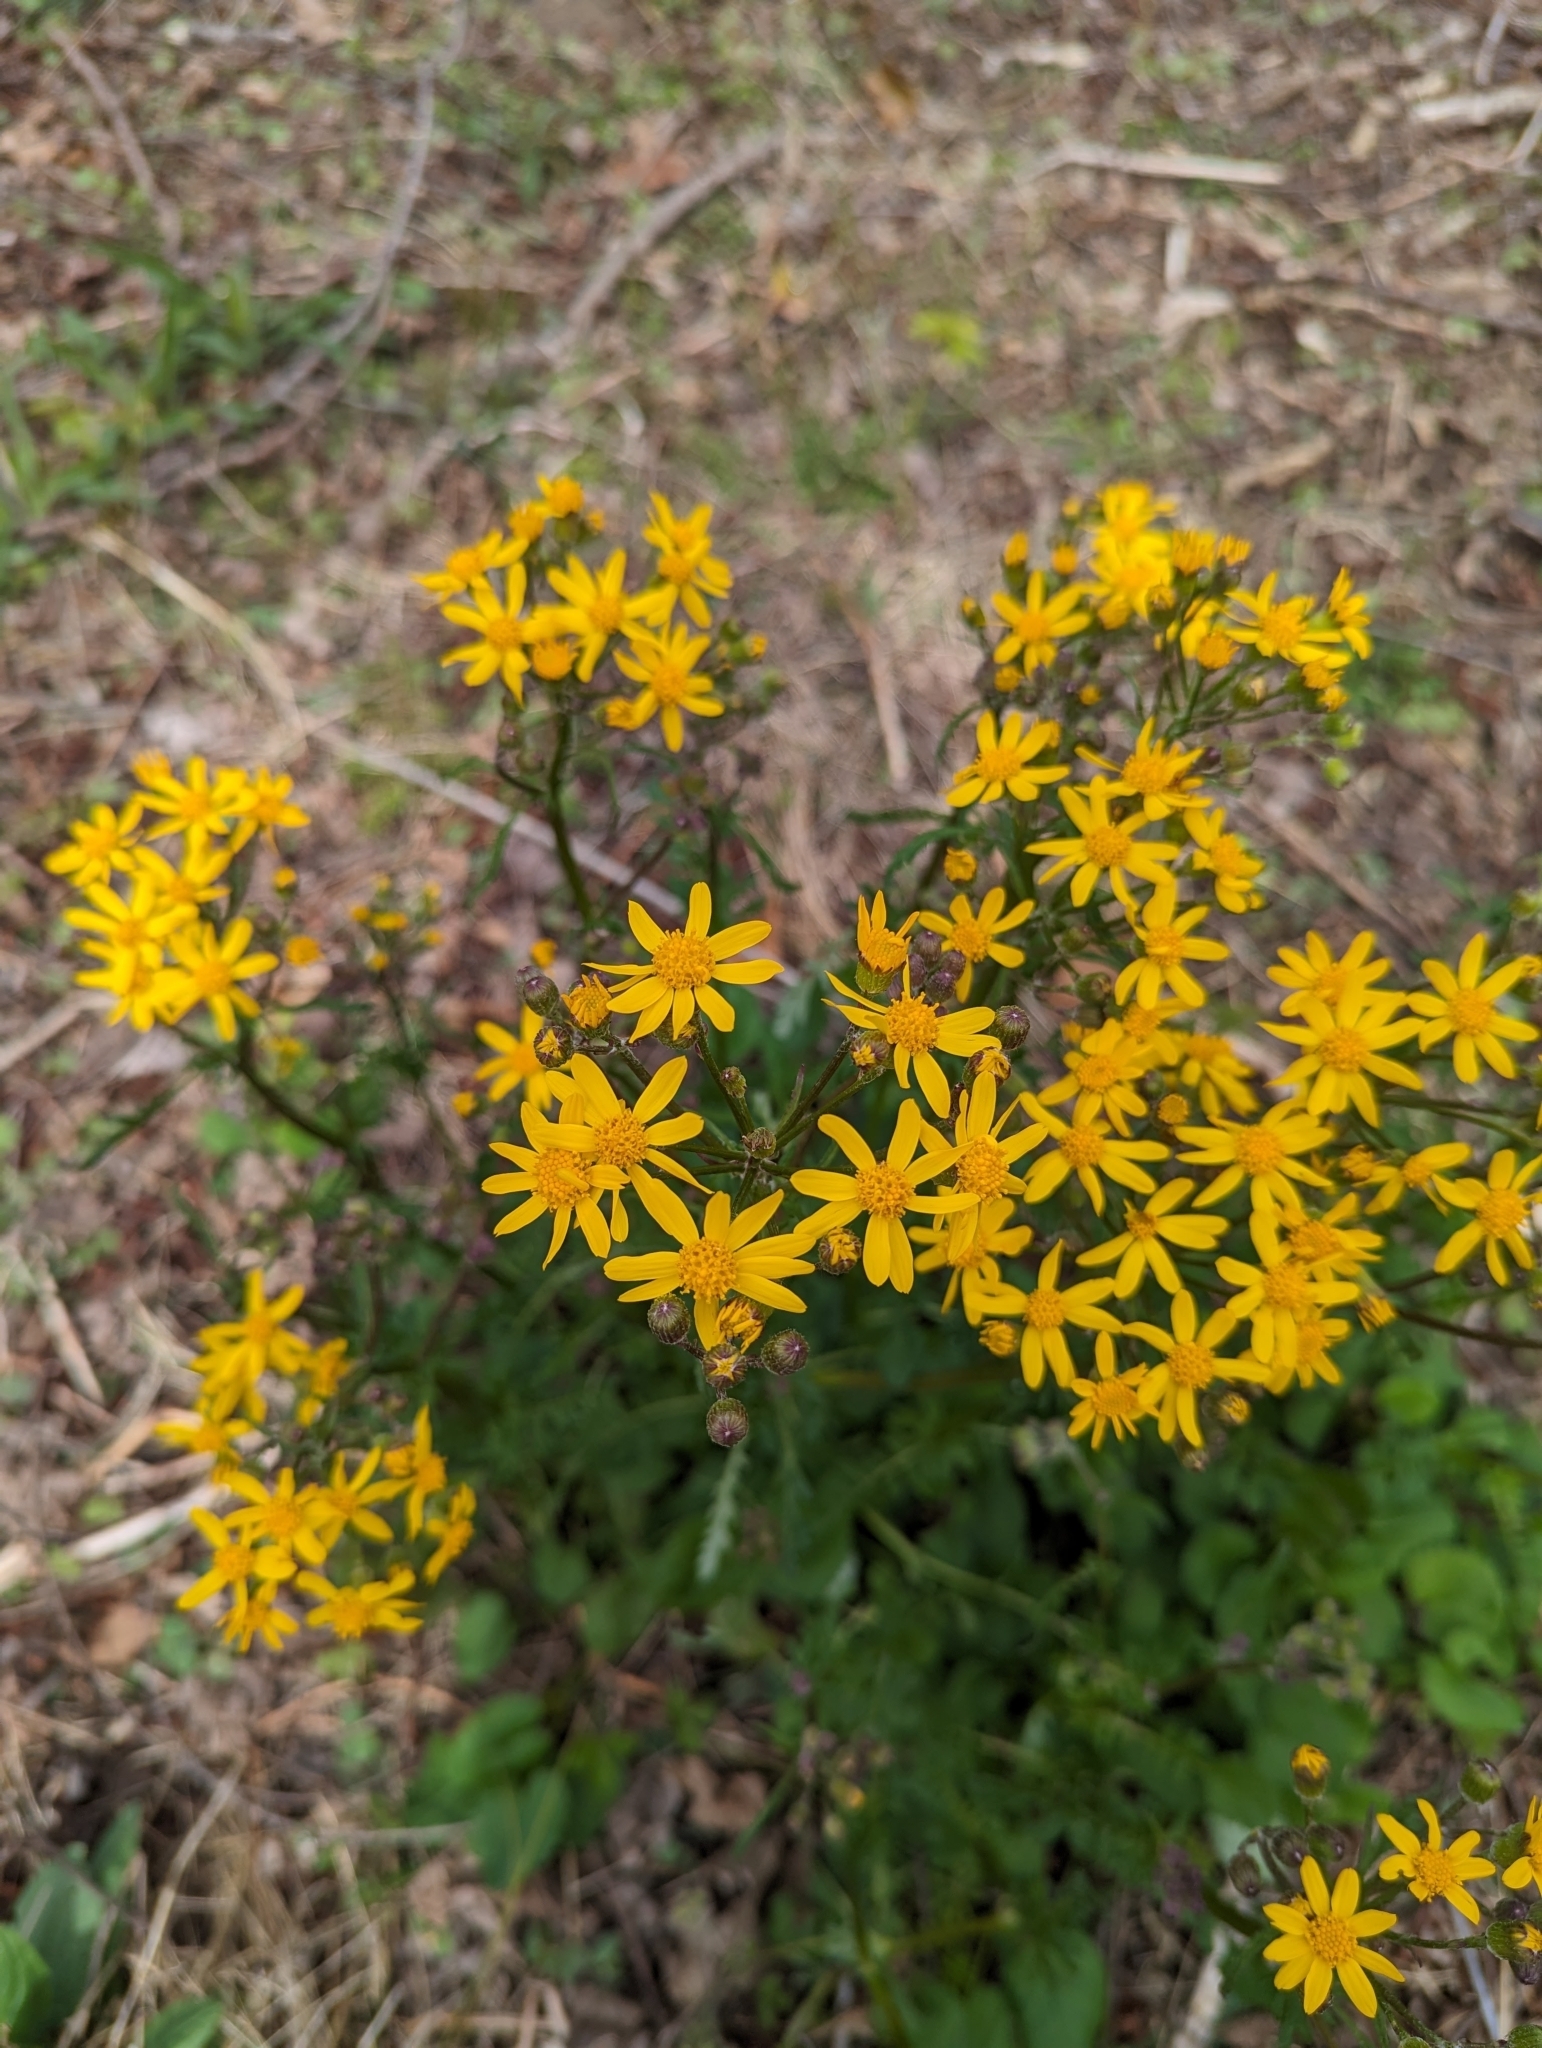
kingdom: Plantae
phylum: Tracheophyta
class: Magnoliopsida
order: Asterales
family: Asteraceae
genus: Packera
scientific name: Packera aurea
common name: Golden groundsel
